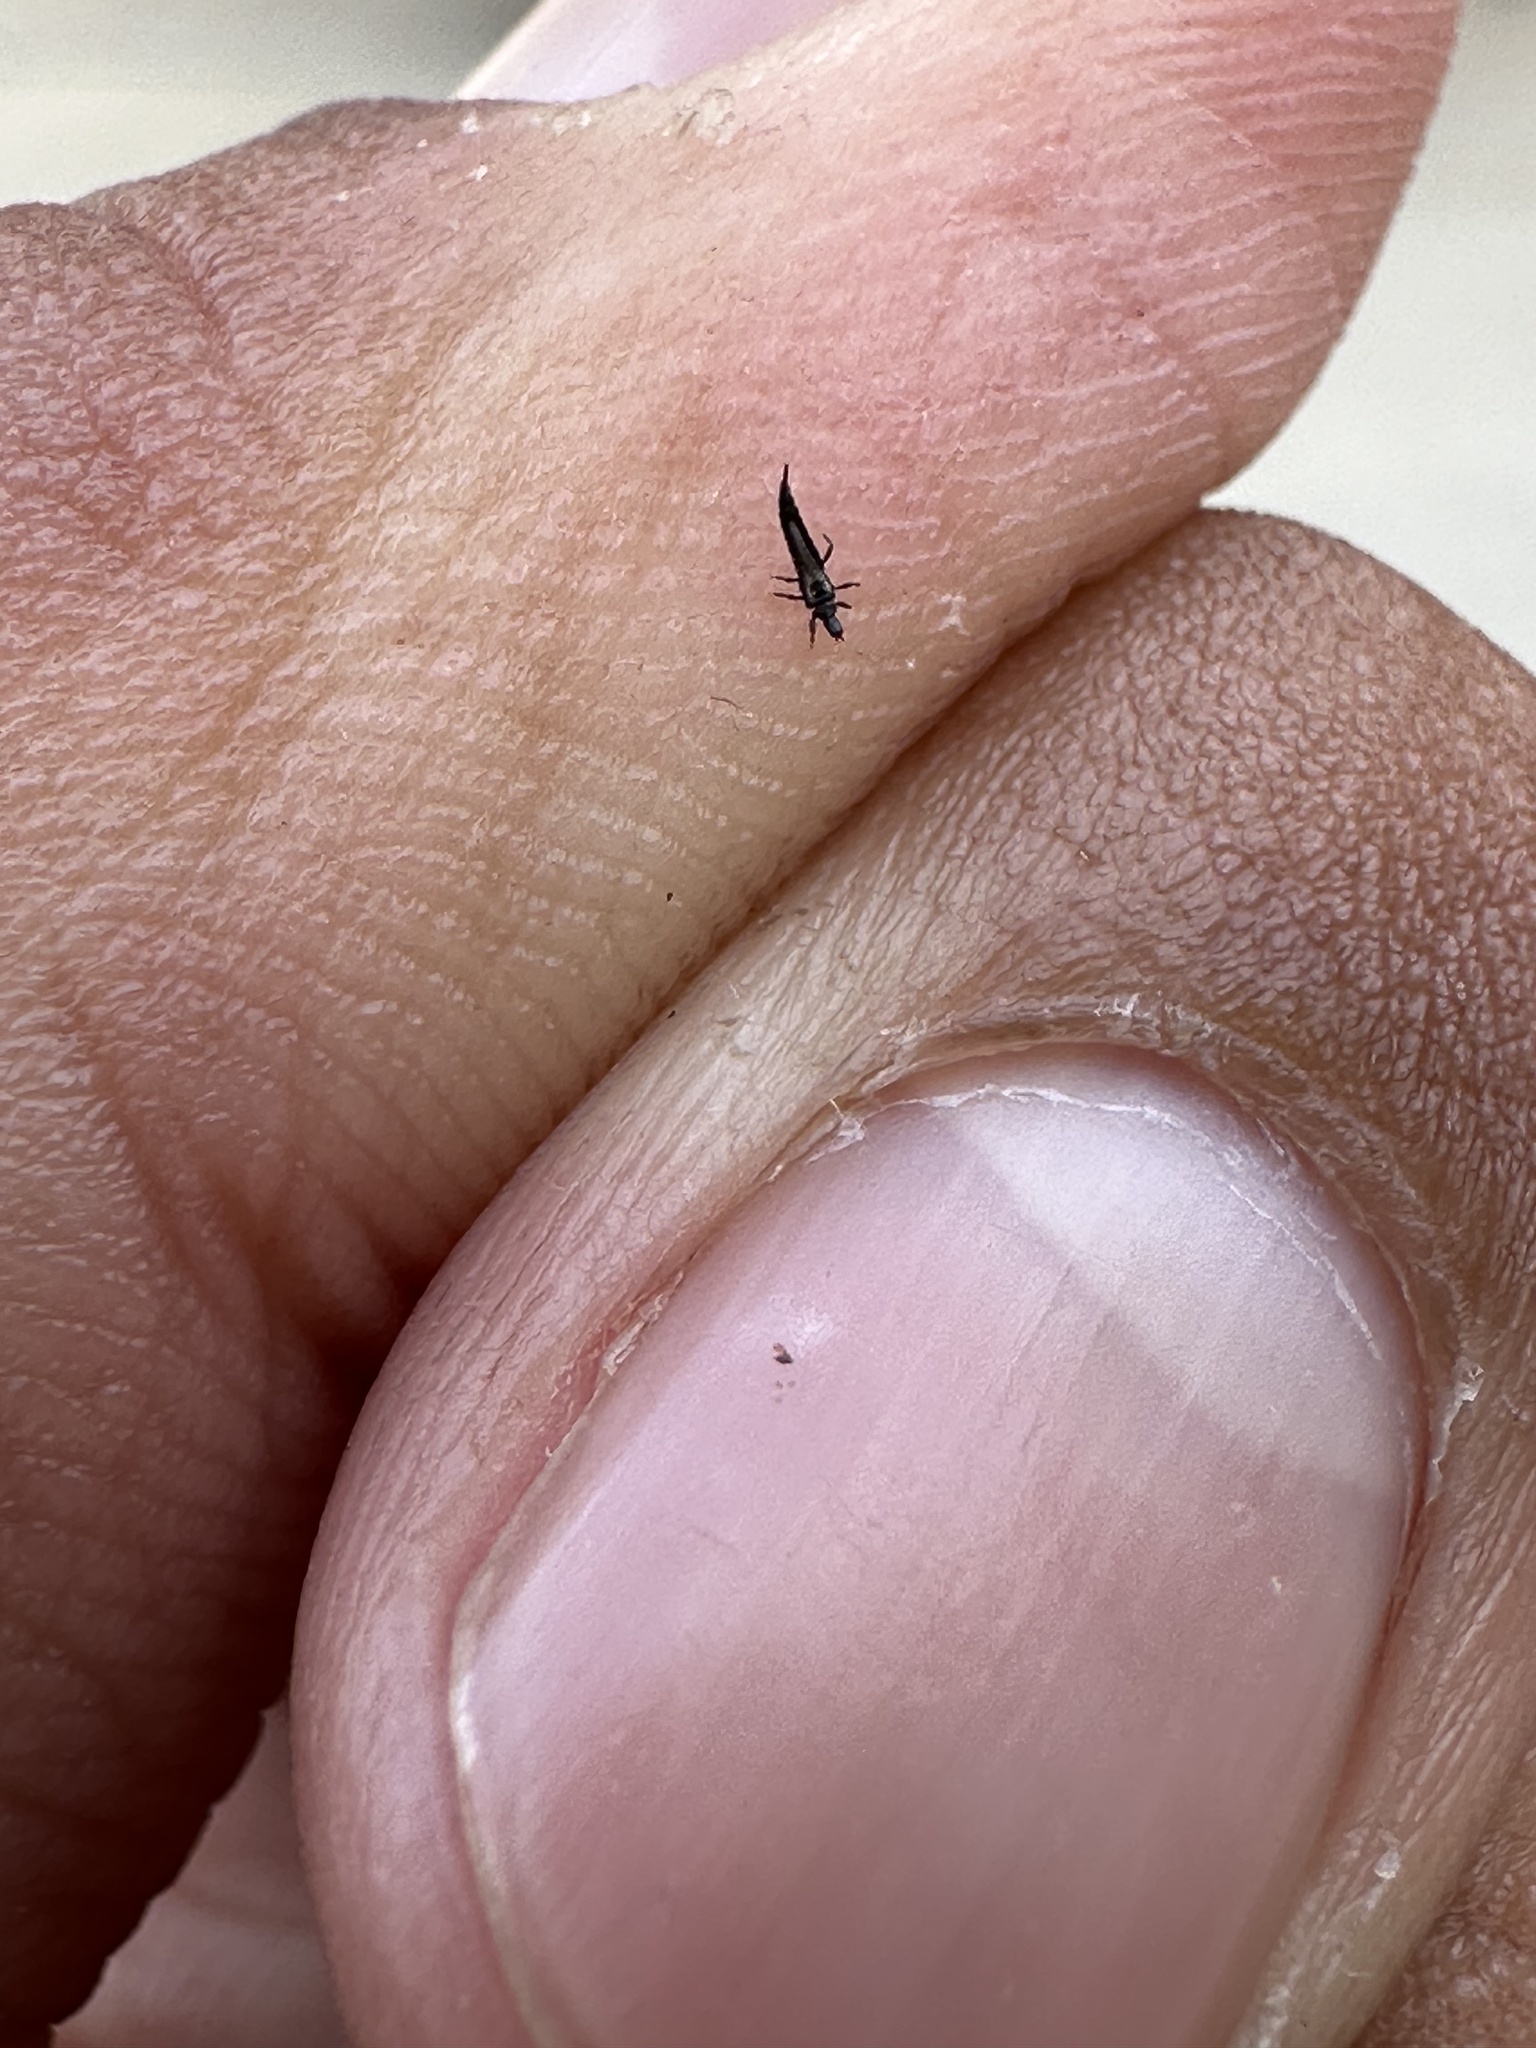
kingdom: Animalia
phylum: Arthropoda
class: Insecta
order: Thysanoptera
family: Phlaeothripidae
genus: Klambothrips
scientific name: Klambothrips myopori
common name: Myoporum thrips
